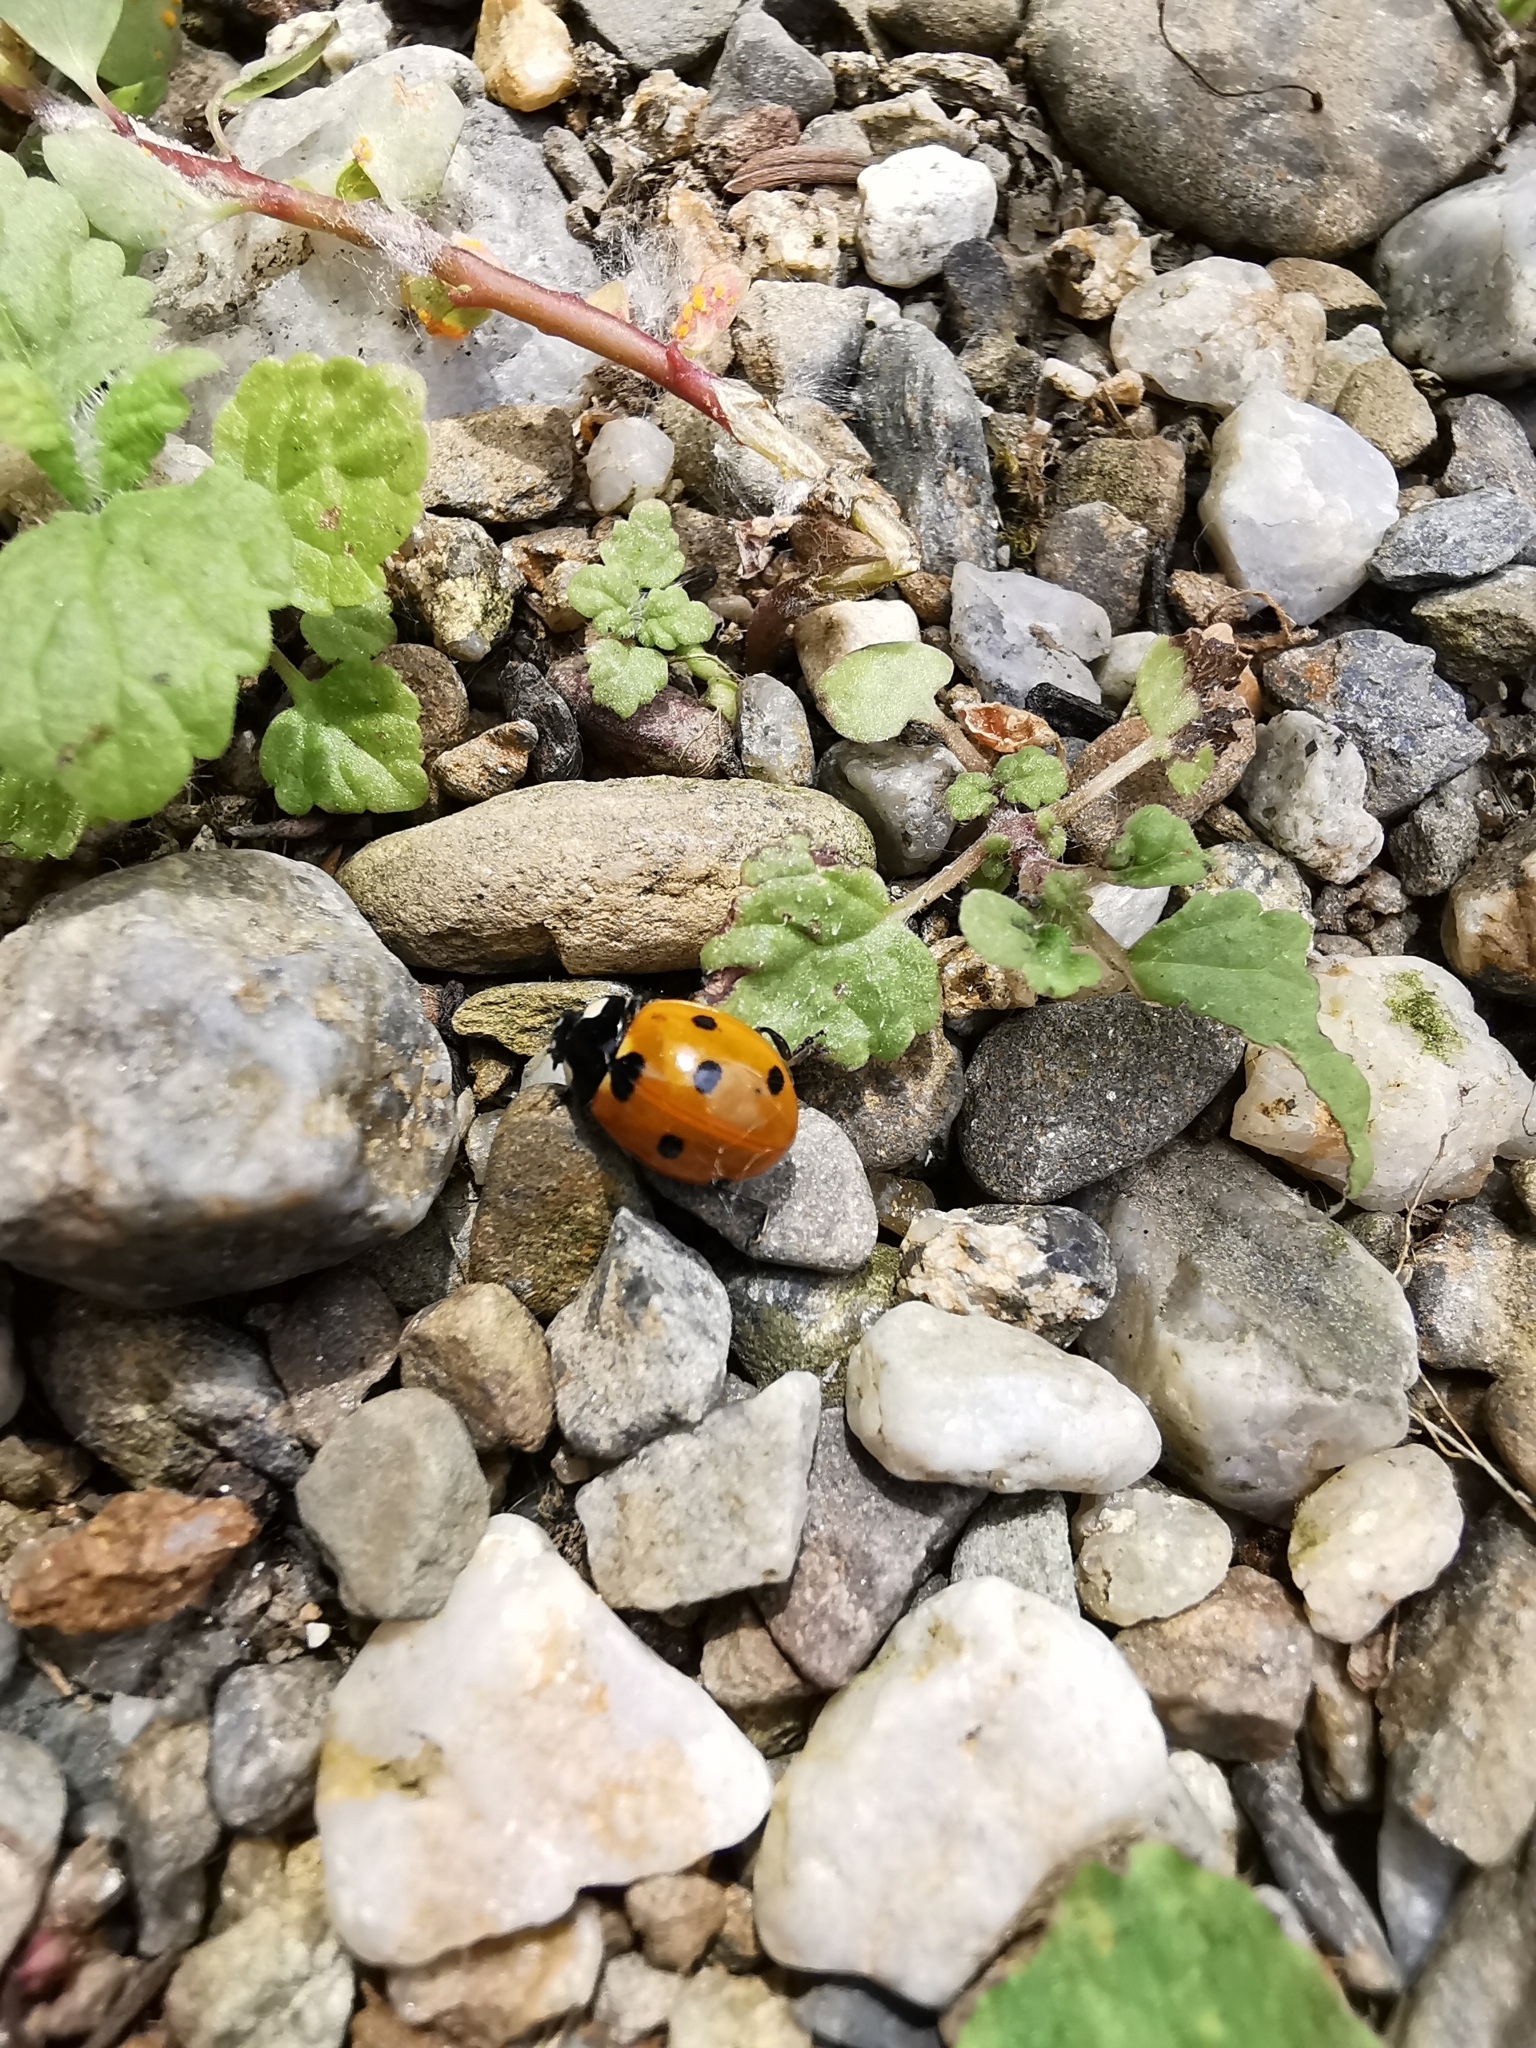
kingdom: Animalia
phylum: Arthropoda
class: Insecta
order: Coleoptera
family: Coccinellidae
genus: Coccinella
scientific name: Coccinella septempunctata
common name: Sevenspotted lady beetle
